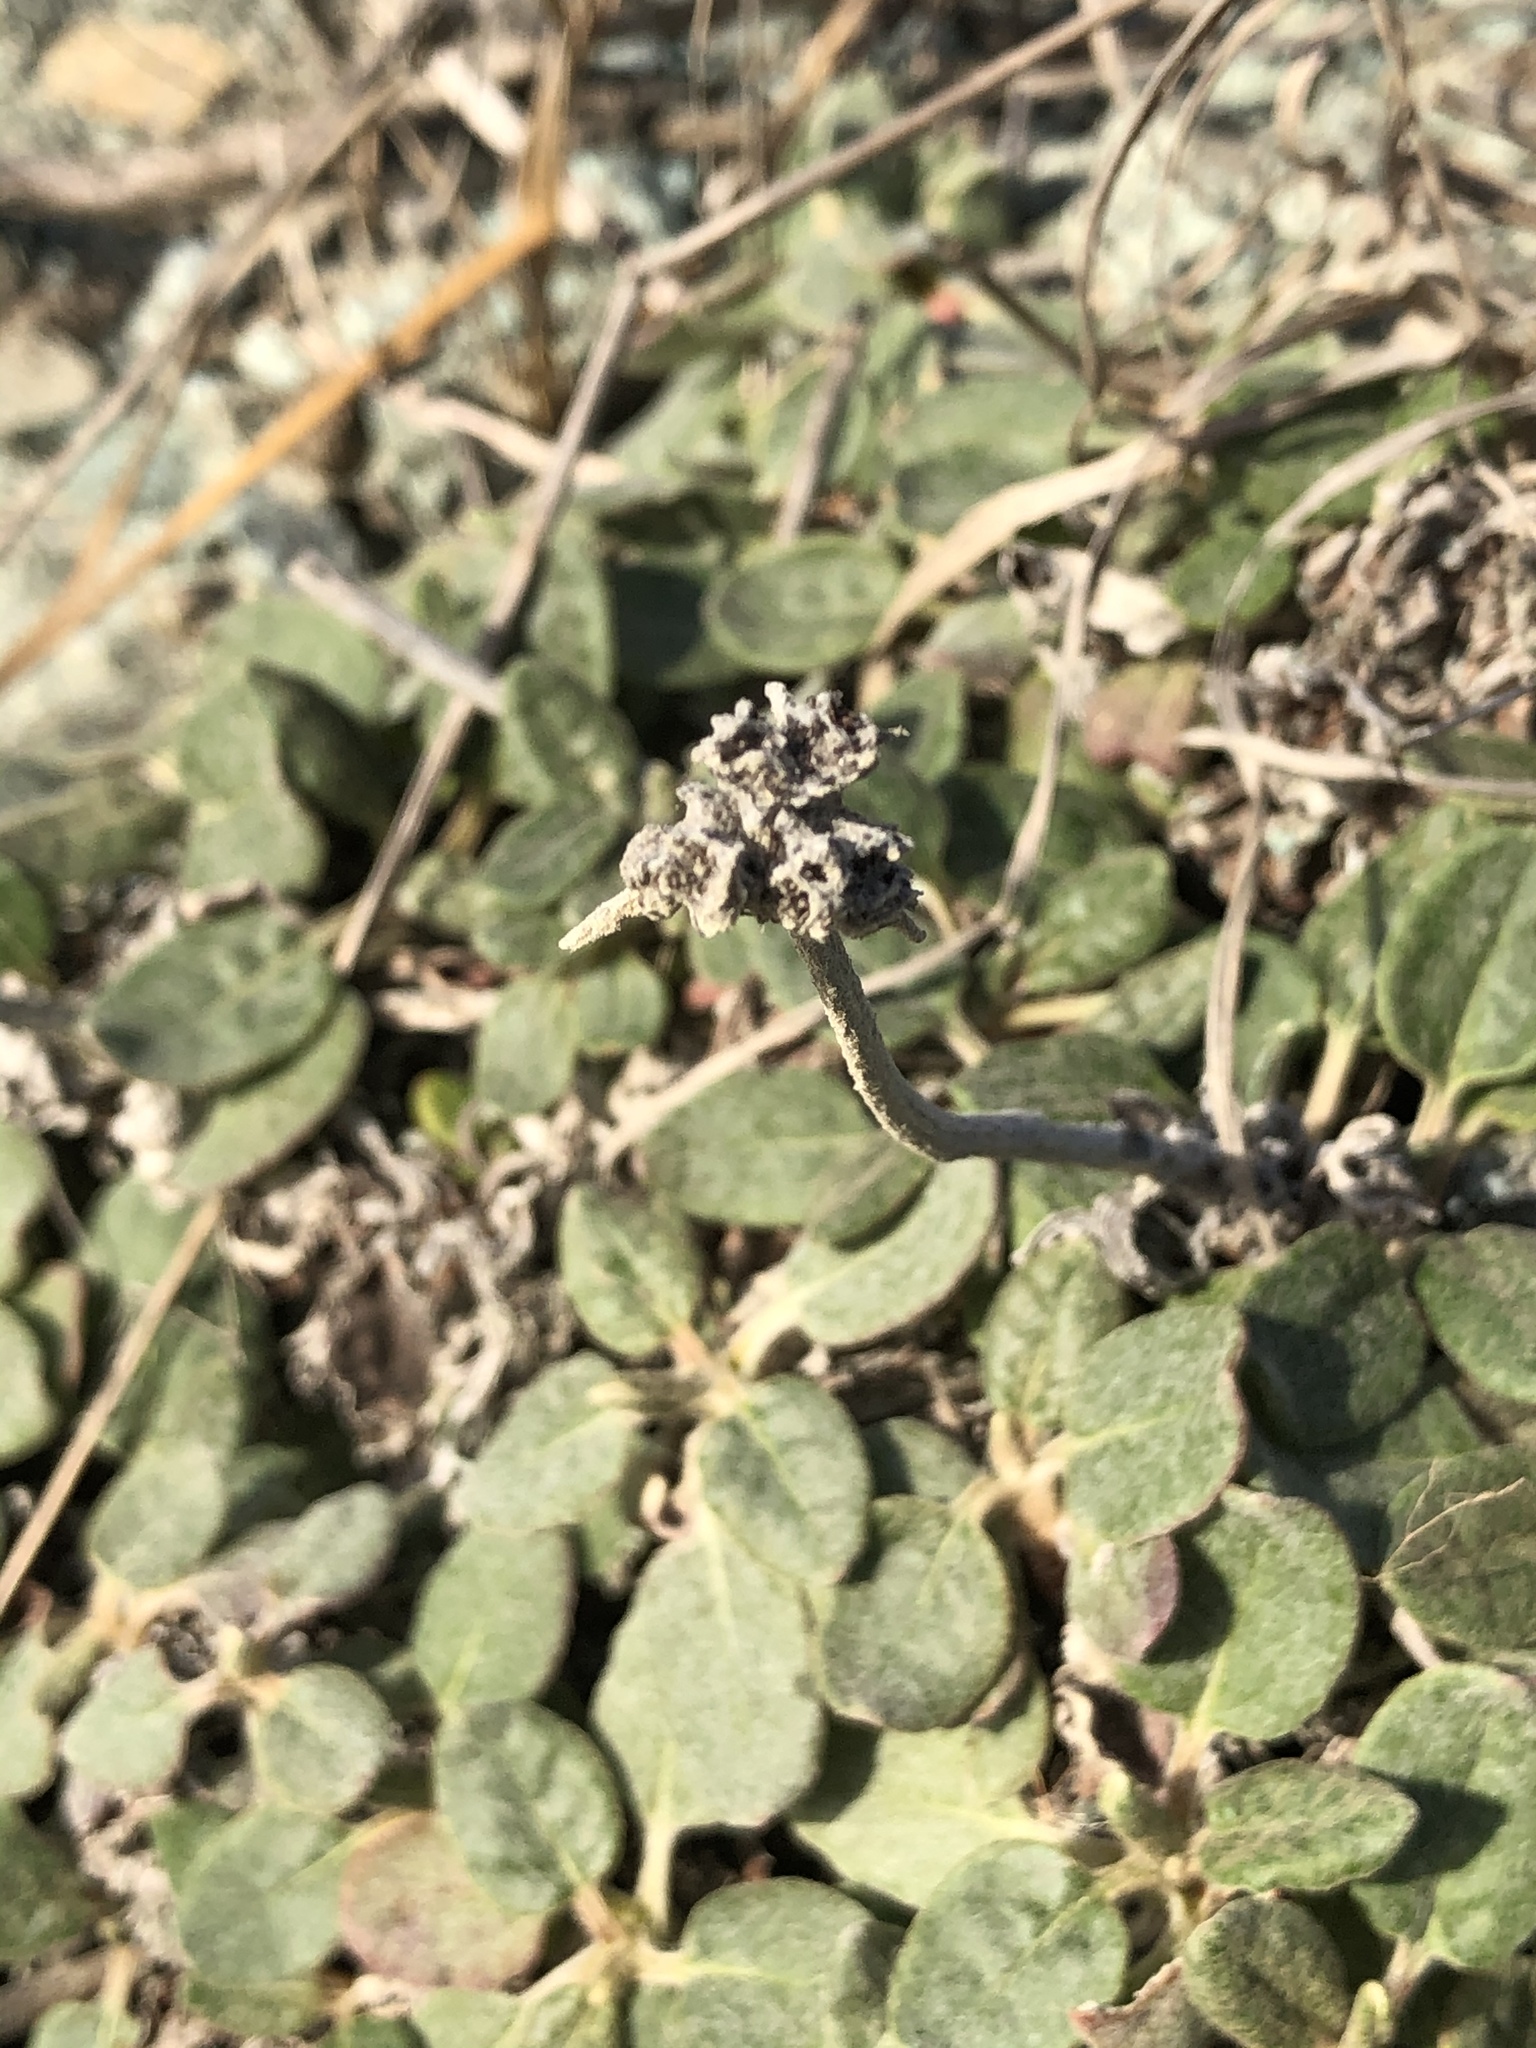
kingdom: Plantae
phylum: Tracheophyta
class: Magnoliopsida
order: Caryophyllales
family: Polygonaceae
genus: Eriogonum
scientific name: Eriogonum latifolium
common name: Seaside wild buckwheat
